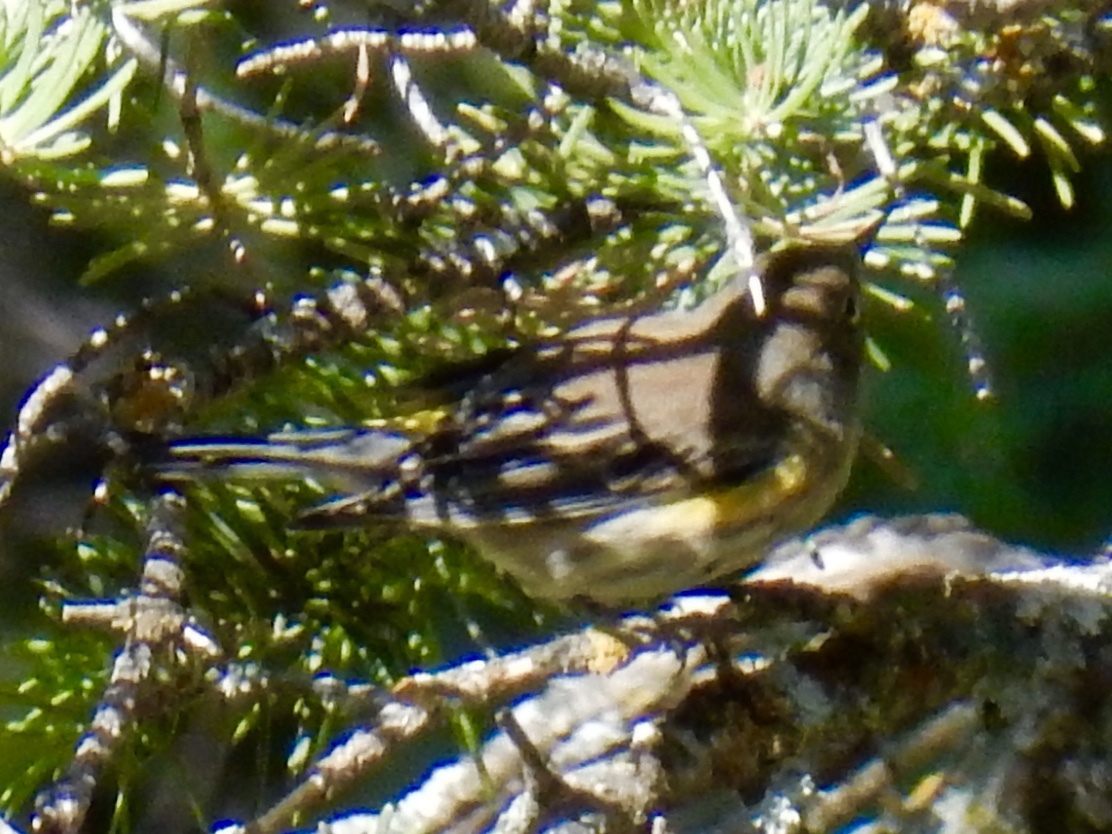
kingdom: Animalia
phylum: Chordata
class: Aves
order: Passeriformes
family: Parulidae
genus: Setophaga
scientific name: Setophaga auduboni
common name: Audubon's warbler
